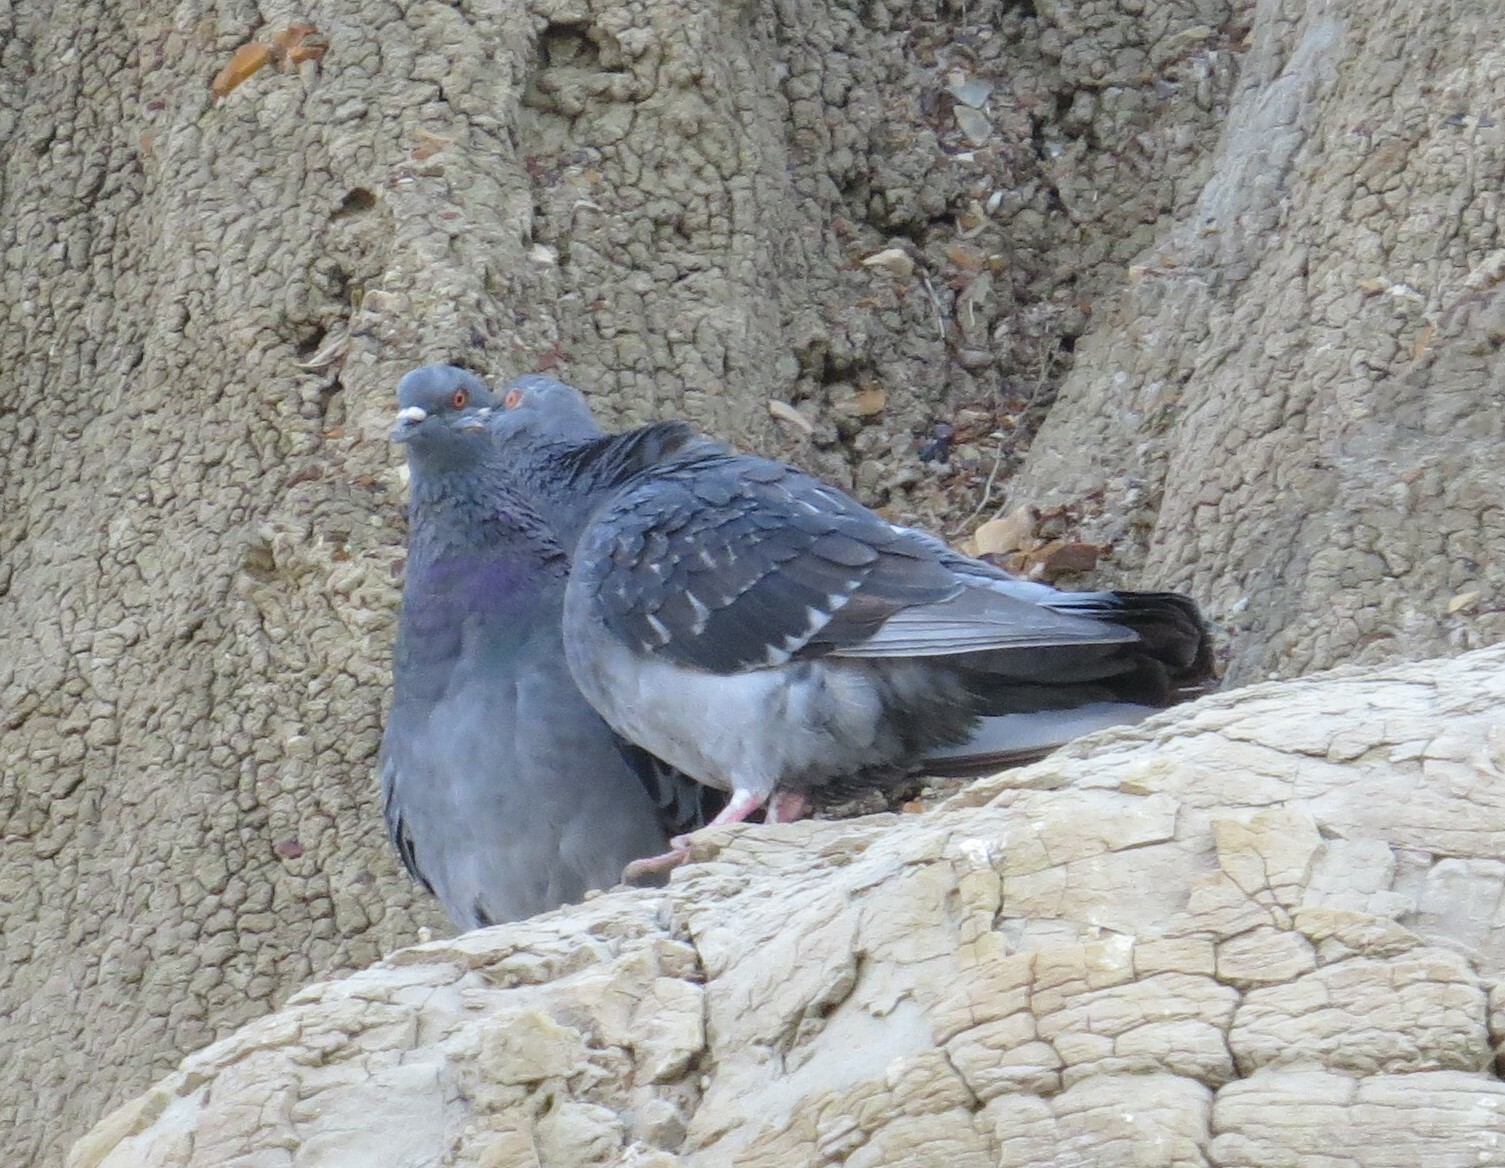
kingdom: Animalia
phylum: Chordata
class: Aves
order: Columbiformes
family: Columbidae
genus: Columba
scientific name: Columba livia
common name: Rock pigeon
